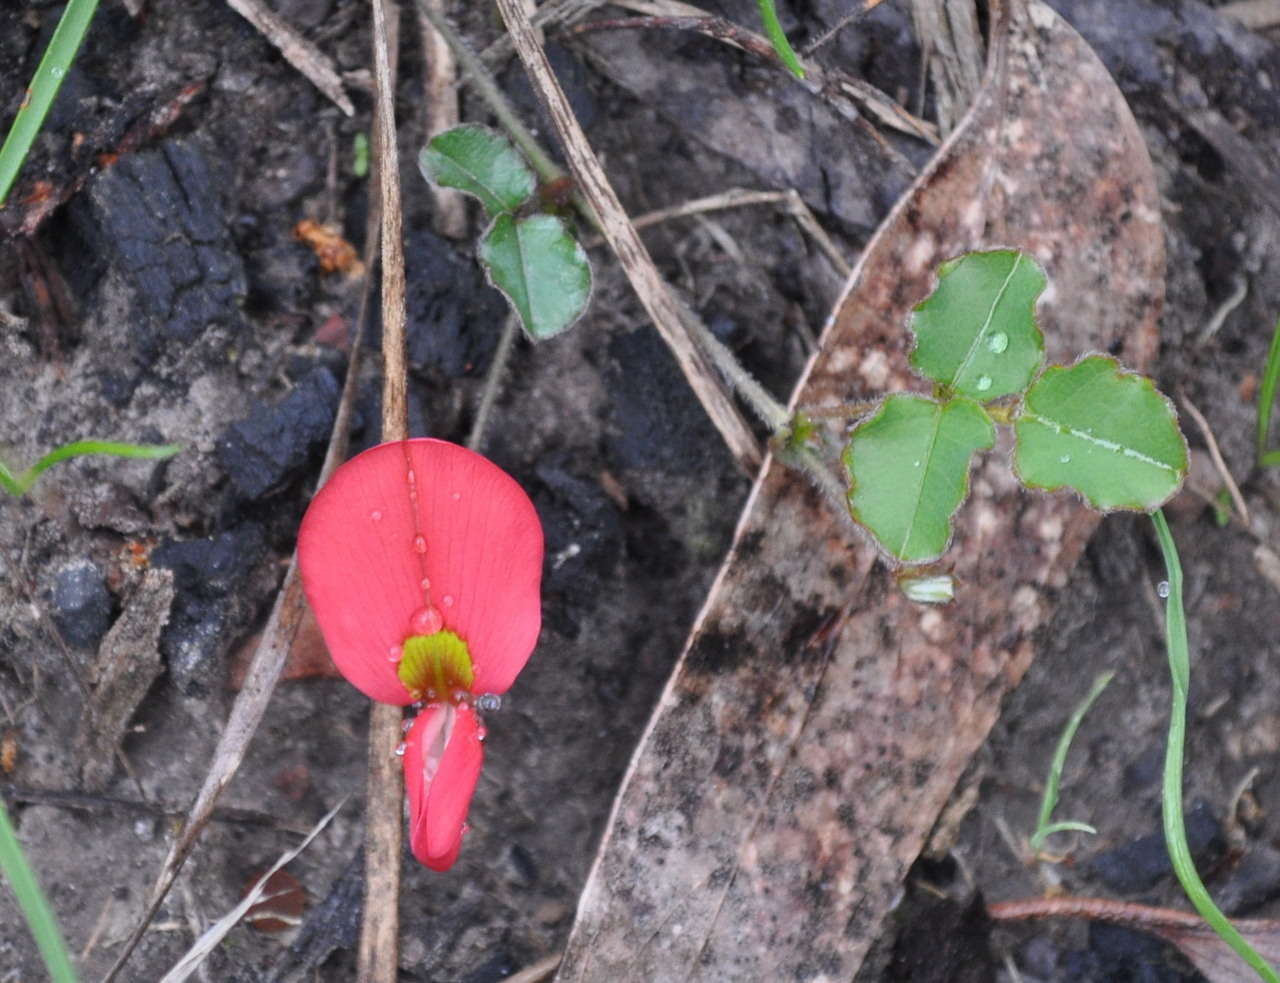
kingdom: Plantae
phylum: Tracheophyta
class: Magnoliopsida
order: Fabales
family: Fabaceae
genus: Kennedia
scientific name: Kennedia prostrata
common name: Running-postman
